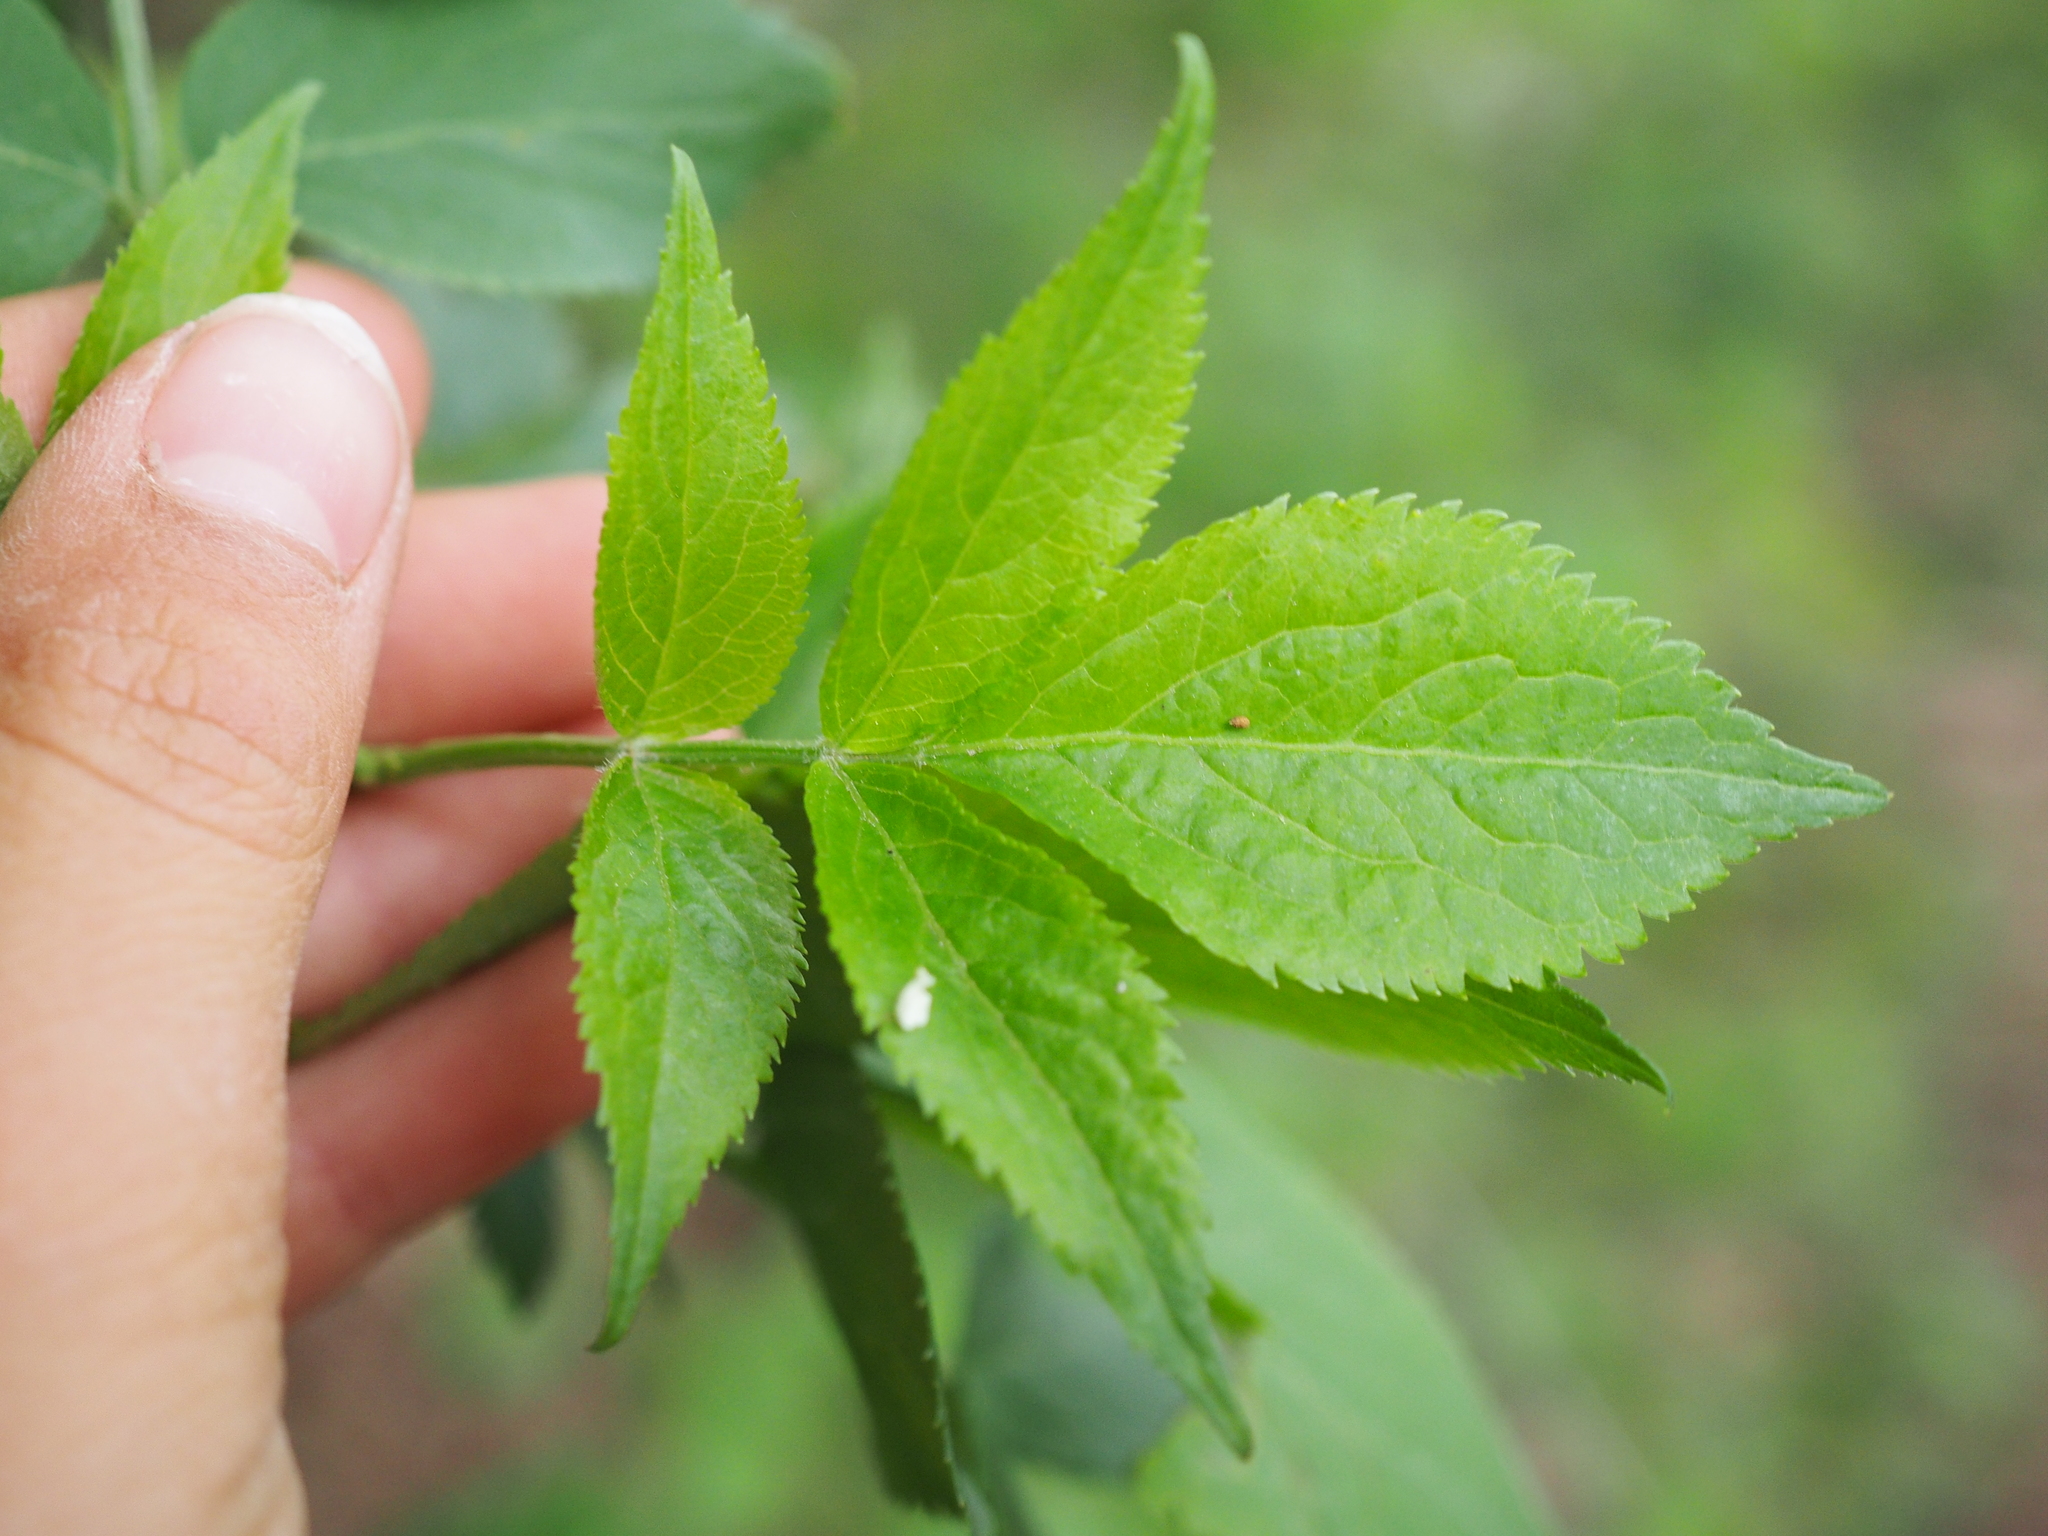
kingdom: Plantae
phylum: Tracheophyta
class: Magnoliopsida
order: Dipsacales
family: Viburnaceae
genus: Sambucus
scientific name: Sambucus nigra
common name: Elder
